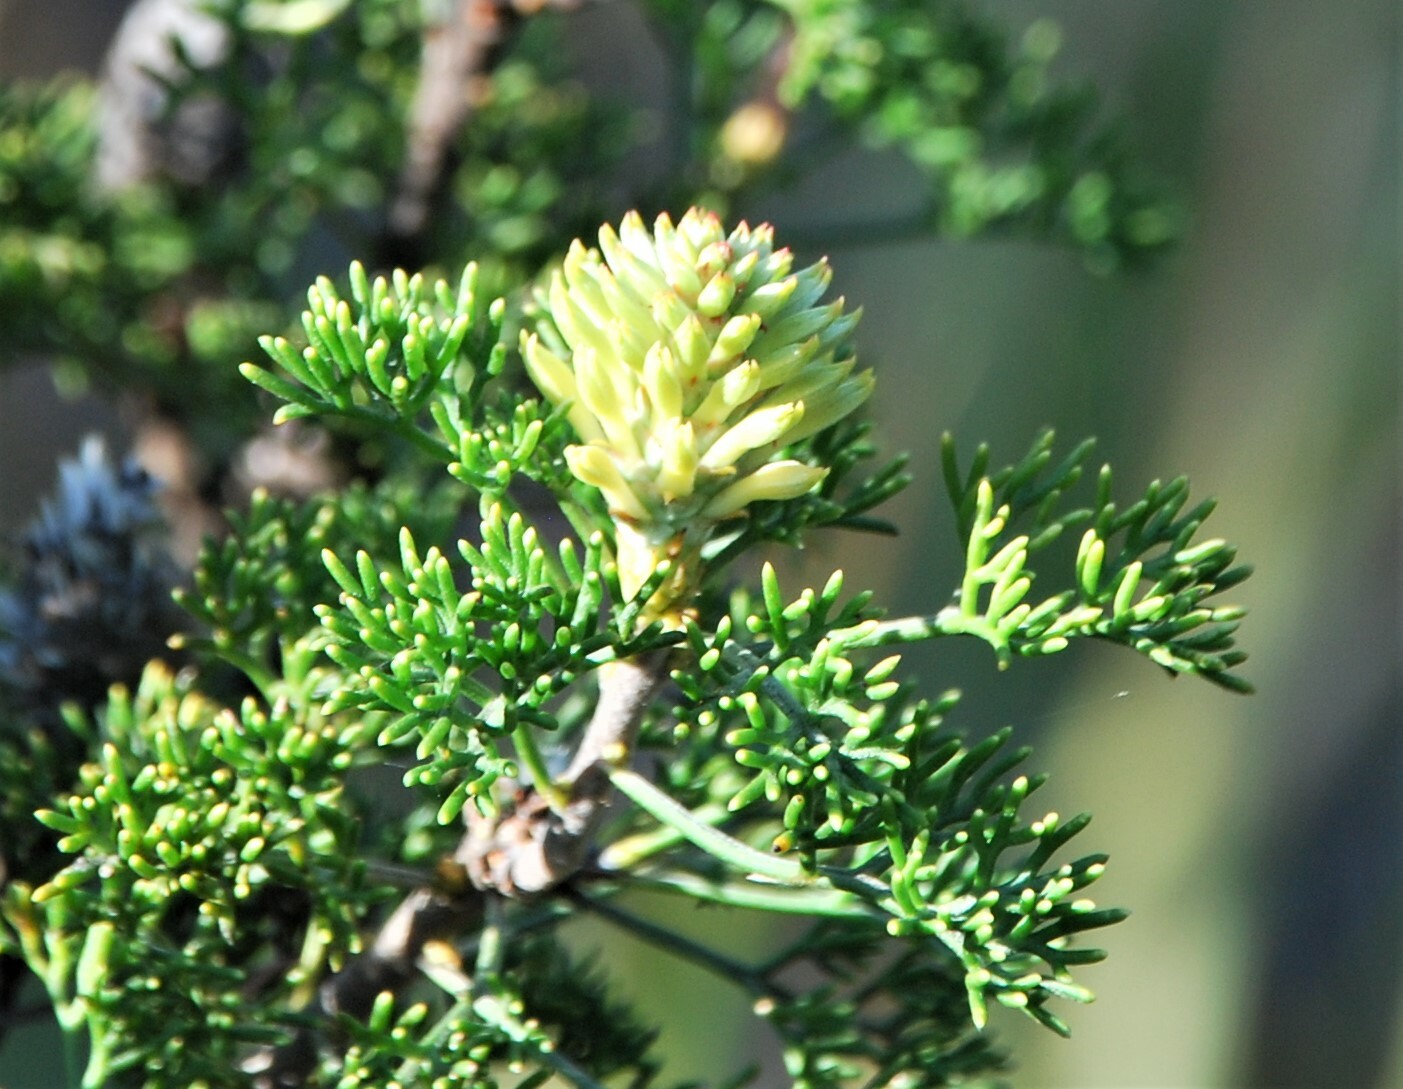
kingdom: Plantae
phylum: Tracheophyta
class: Magnoliopsida
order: Proteales
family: Proteaceae
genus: Petrophile
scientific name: Petrophile canescens
